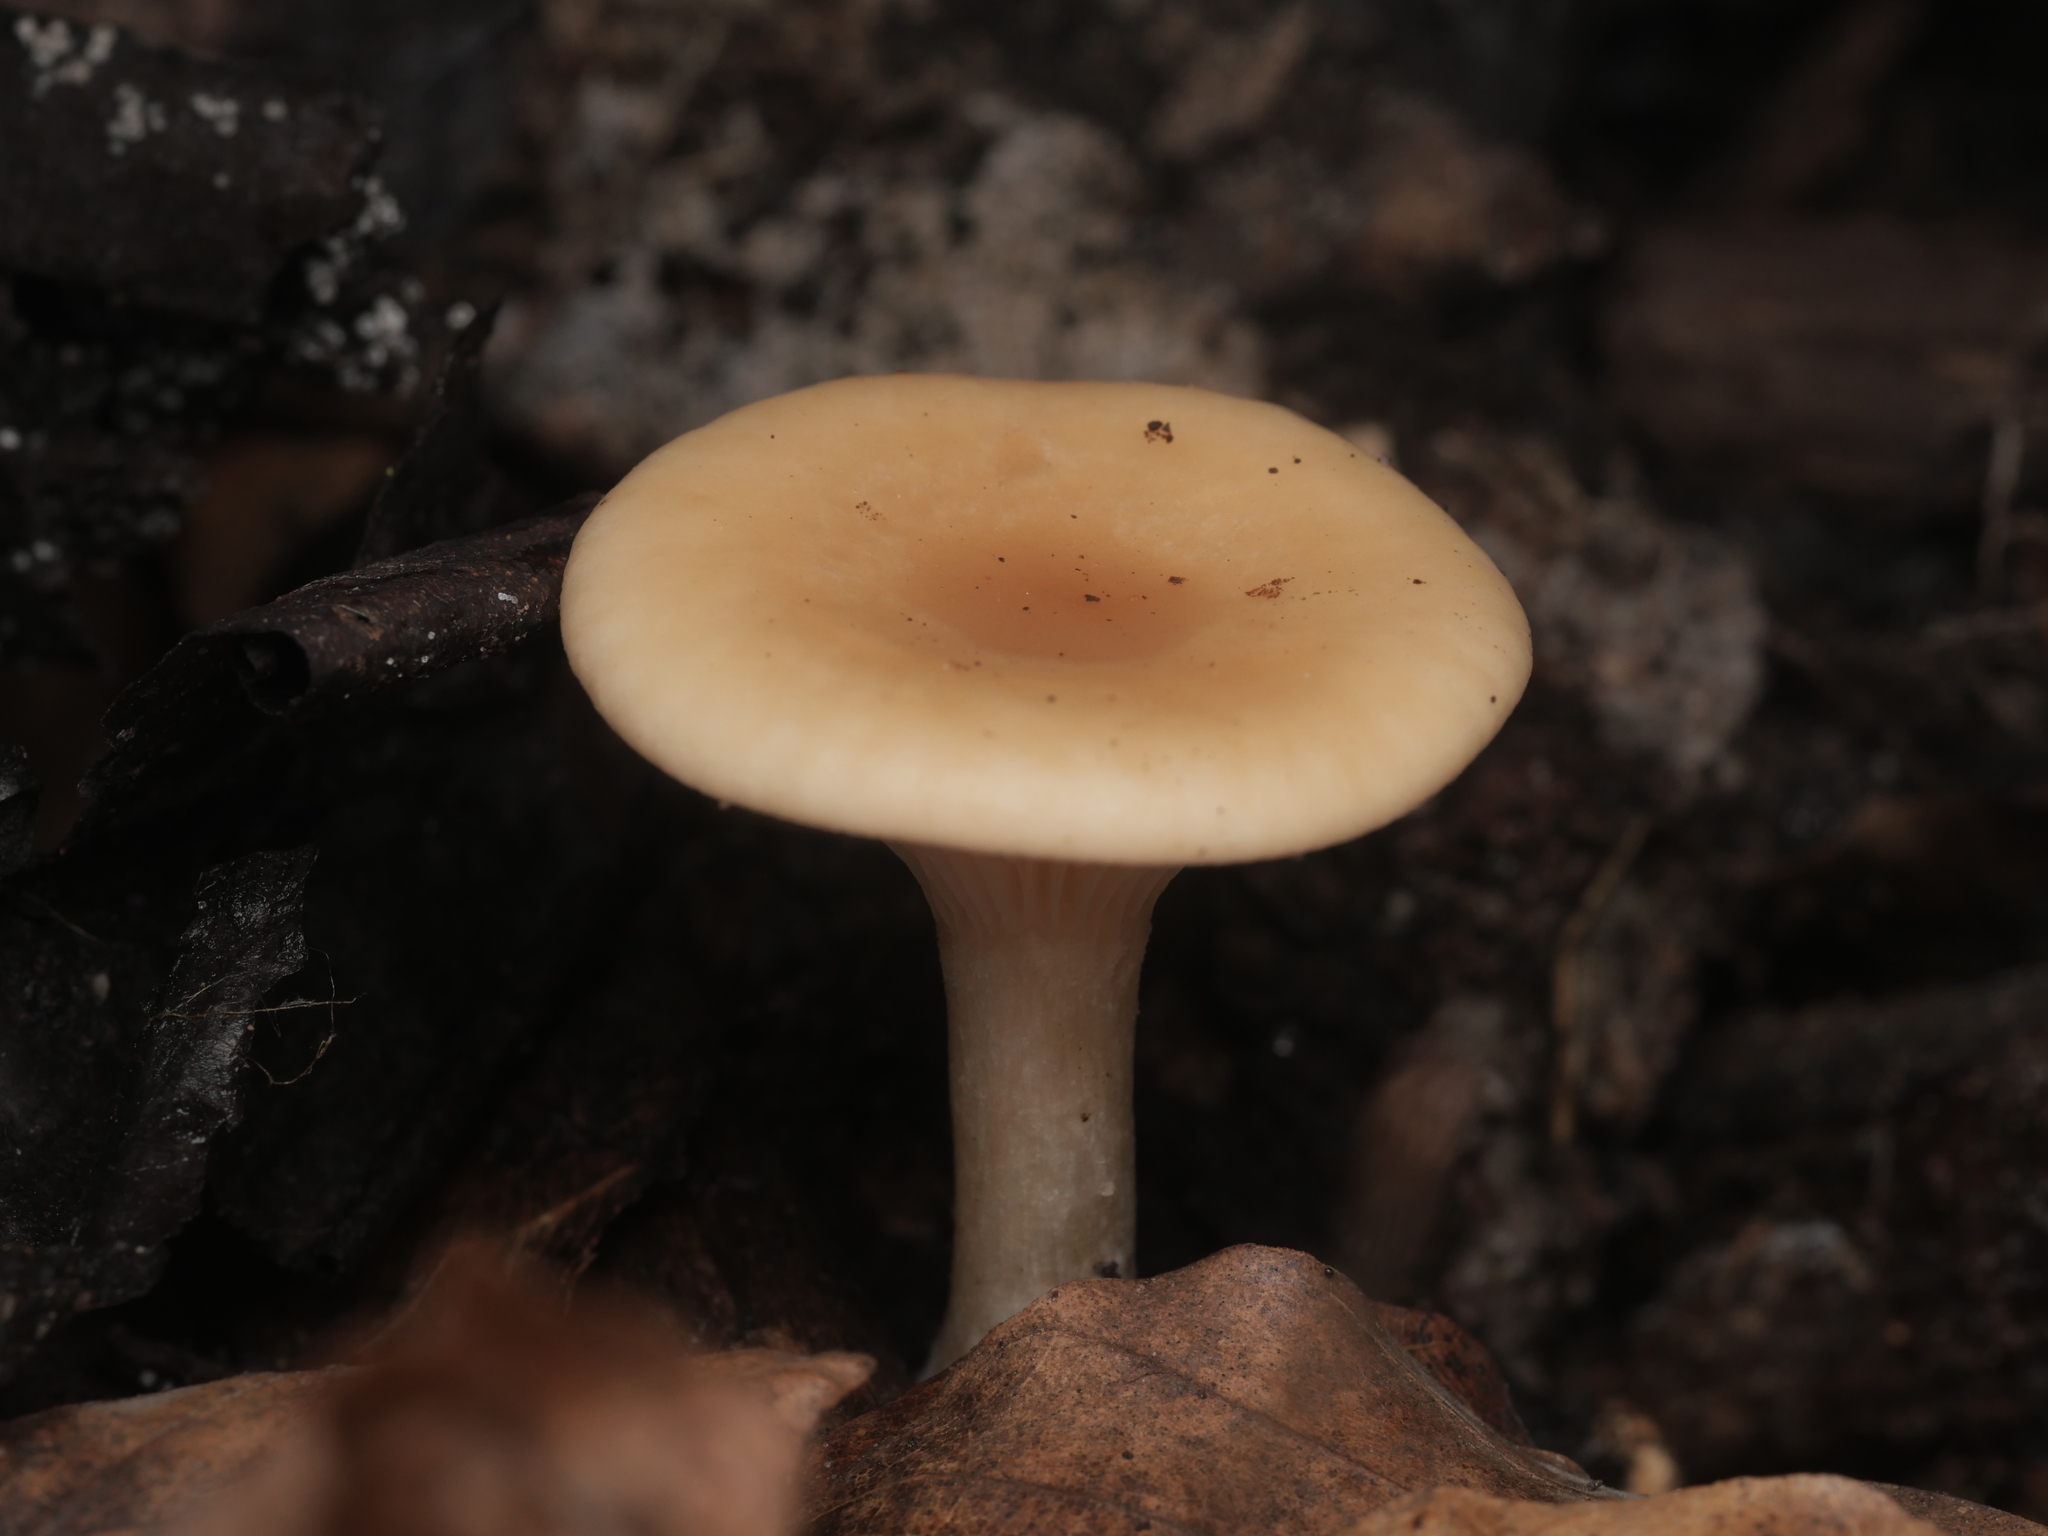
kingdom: Fungi
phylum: Basidiomycota
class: Agaricomycetes
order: Agaricales
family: Tricholomataceae
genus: Paralepista
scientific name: Paralepista flaccida
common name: Tawny funnel cap
